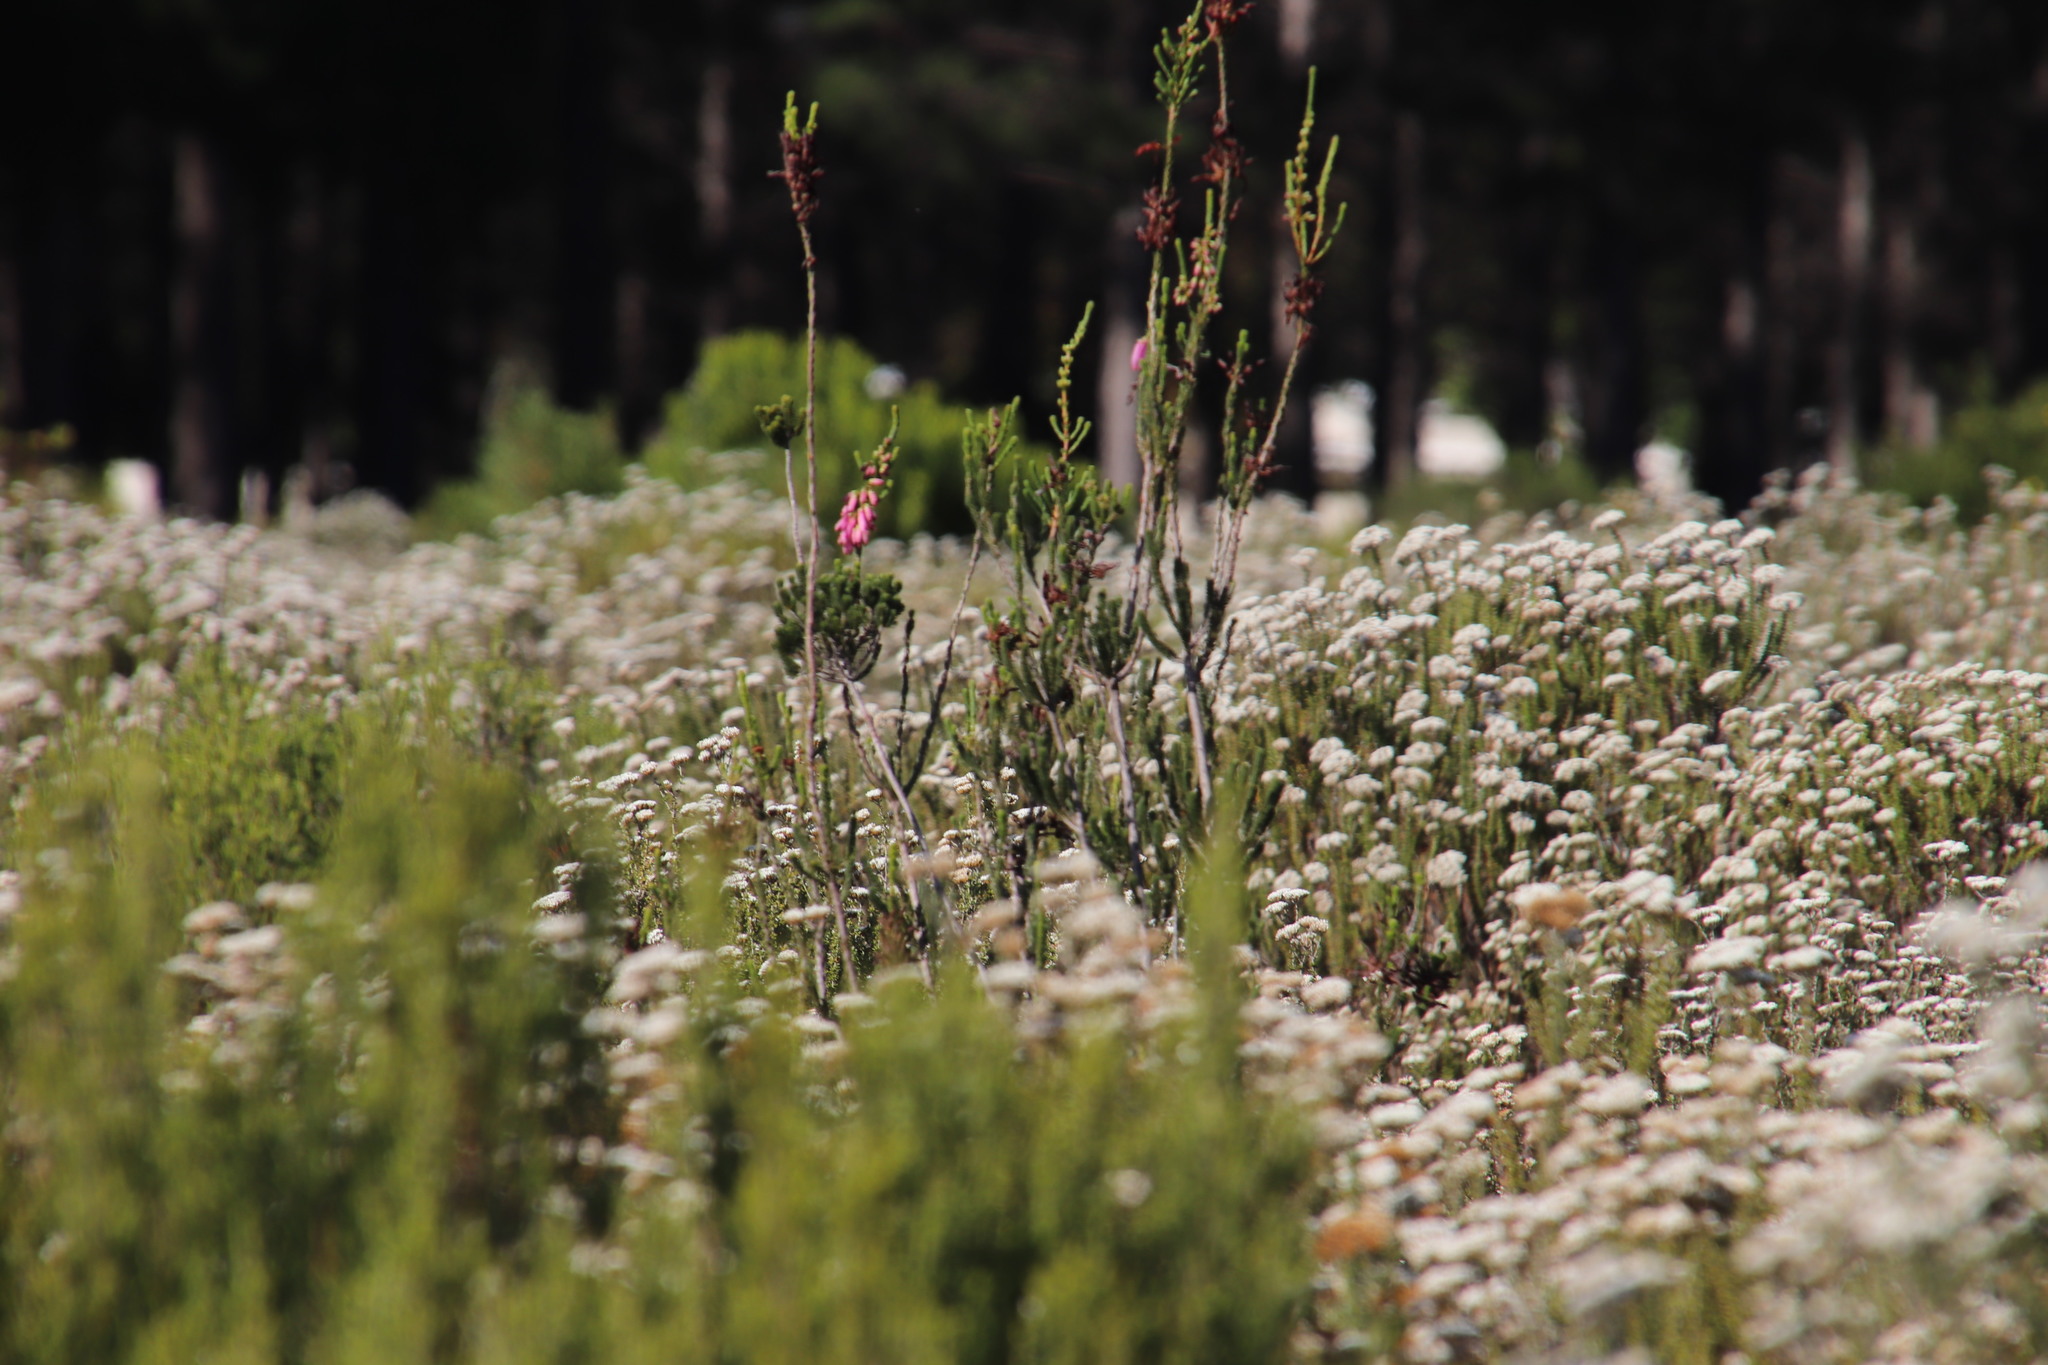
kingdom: Plantae
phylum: Tracheophyta
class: Magnoliopsida
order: Ericales
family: Ericaceae
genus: Erica
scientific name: Erica mammosa
